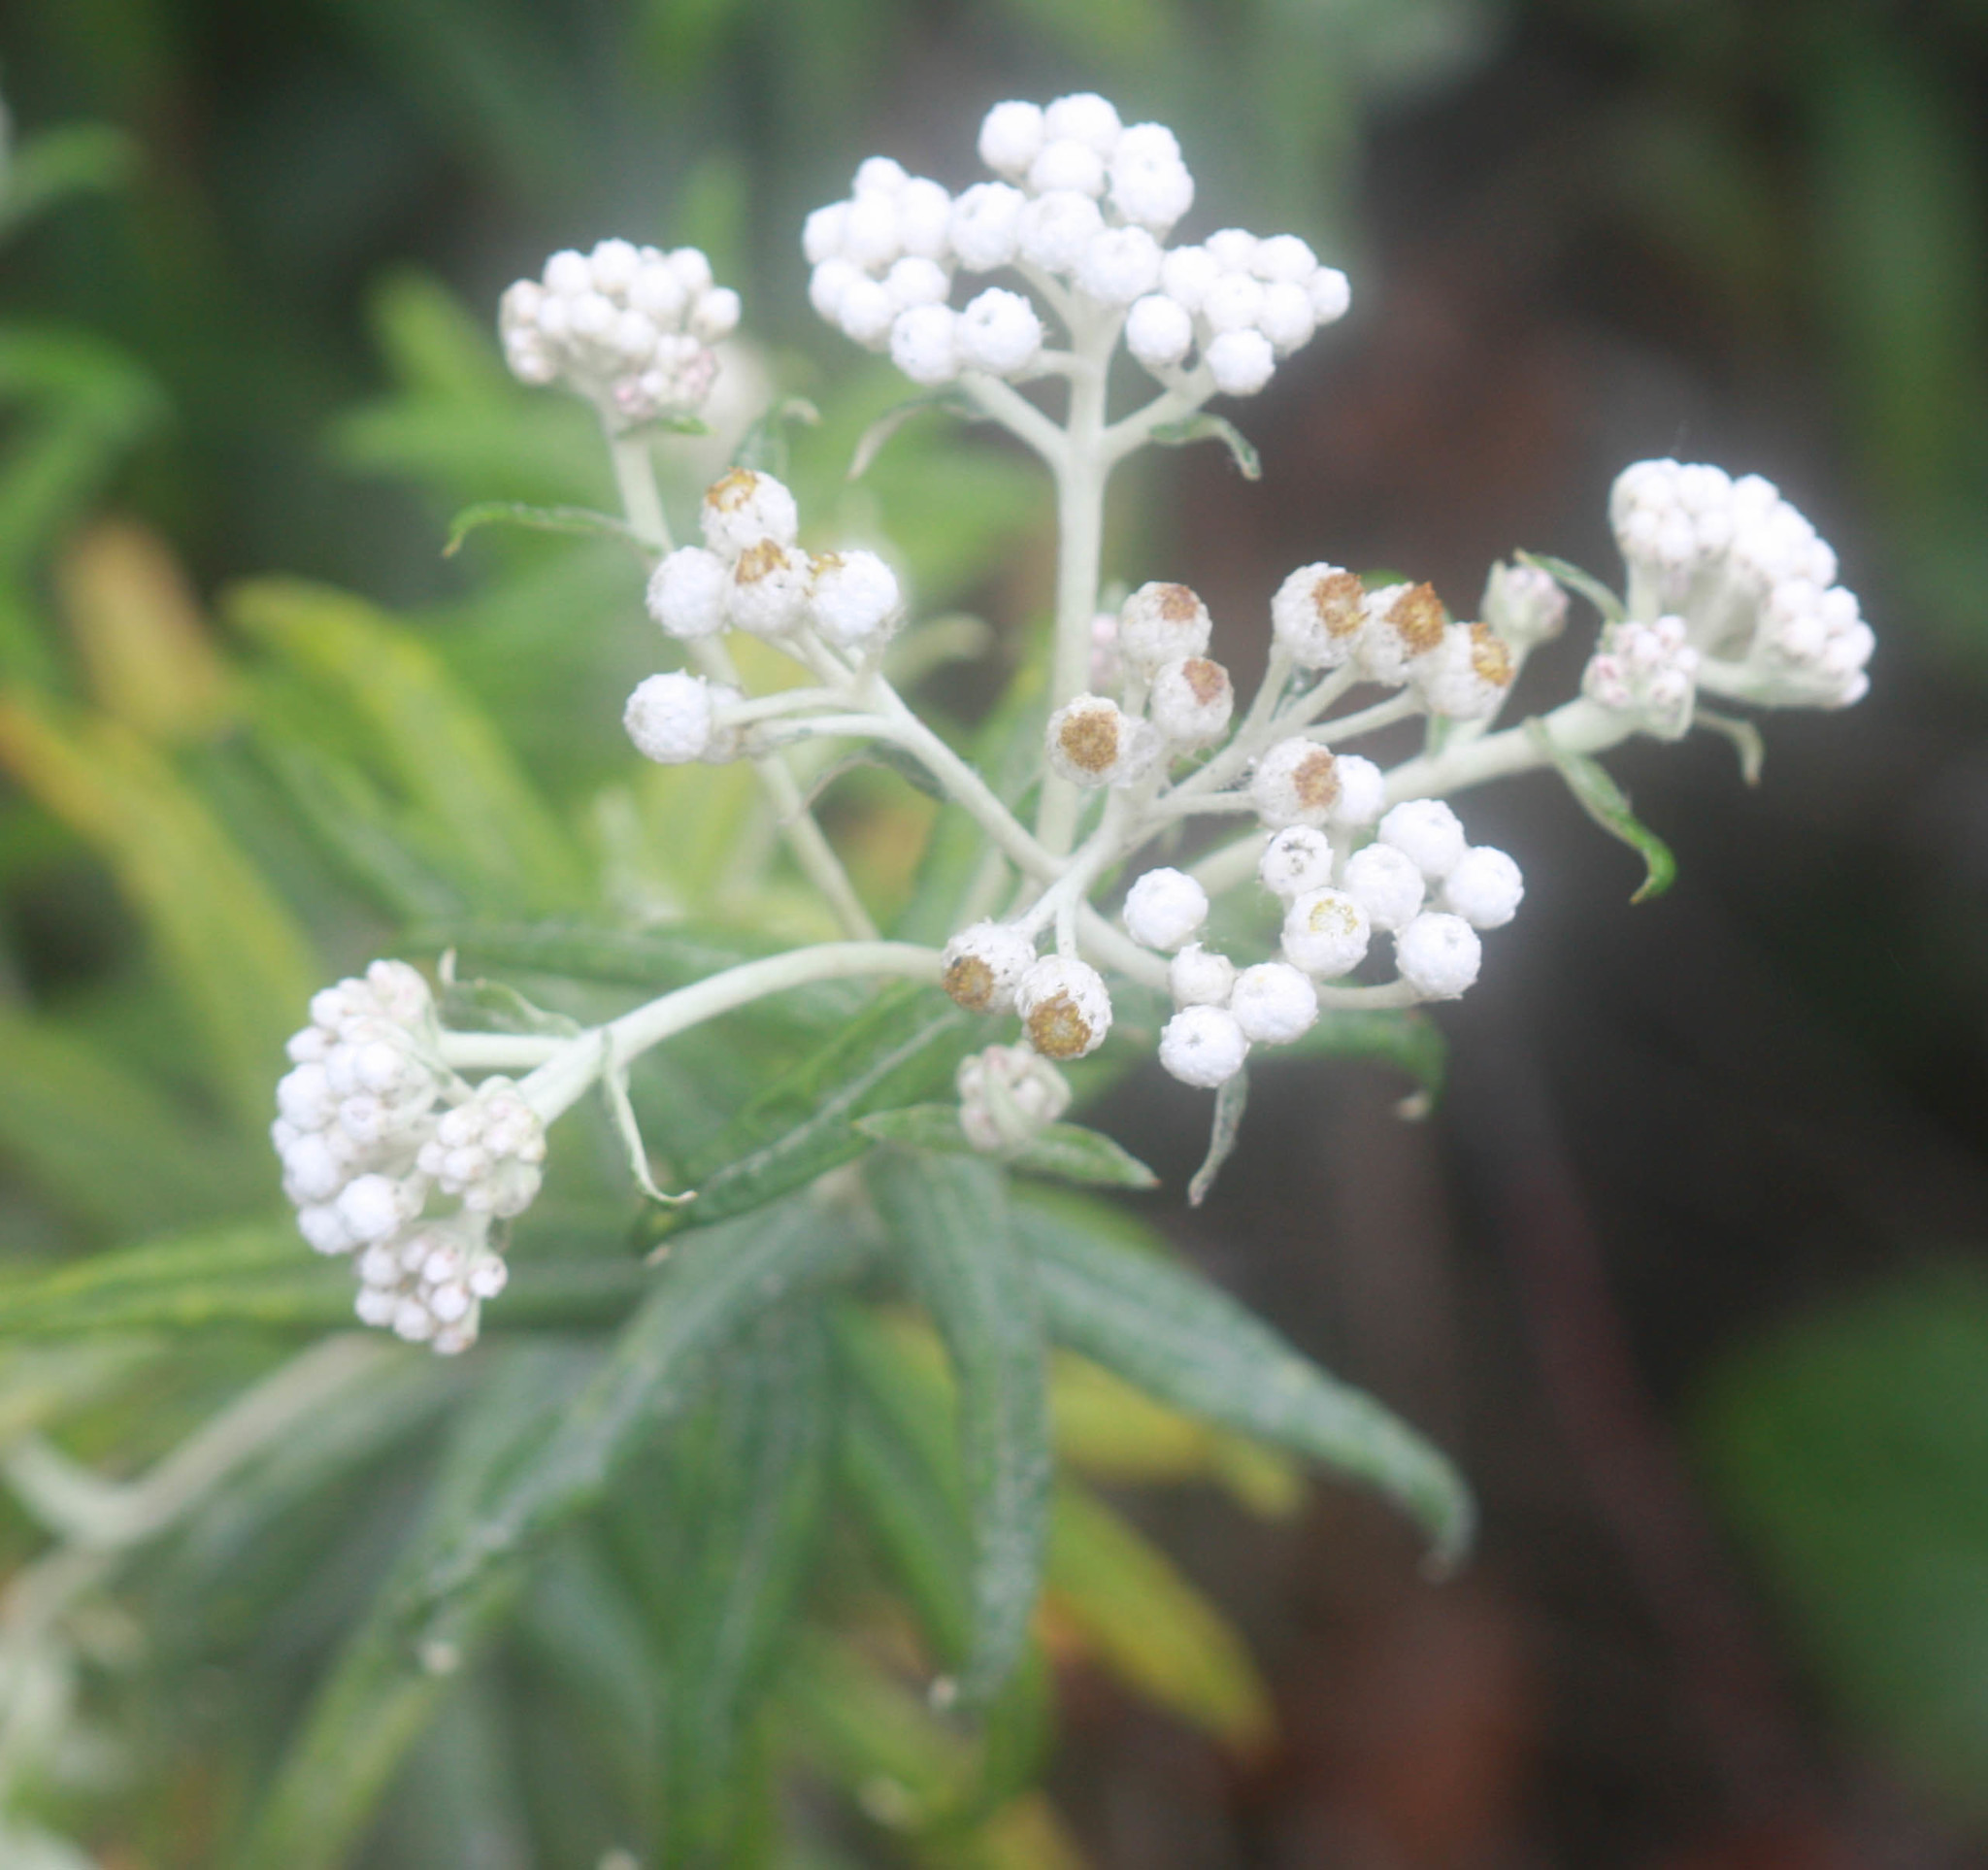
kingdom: Plantae
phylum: Tracheophyta
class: Magnoliopsida
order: Asterales
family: Asteraceae
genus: Anaphalis
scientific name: Anaphalis margaritacea
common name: Pearly everlasting
